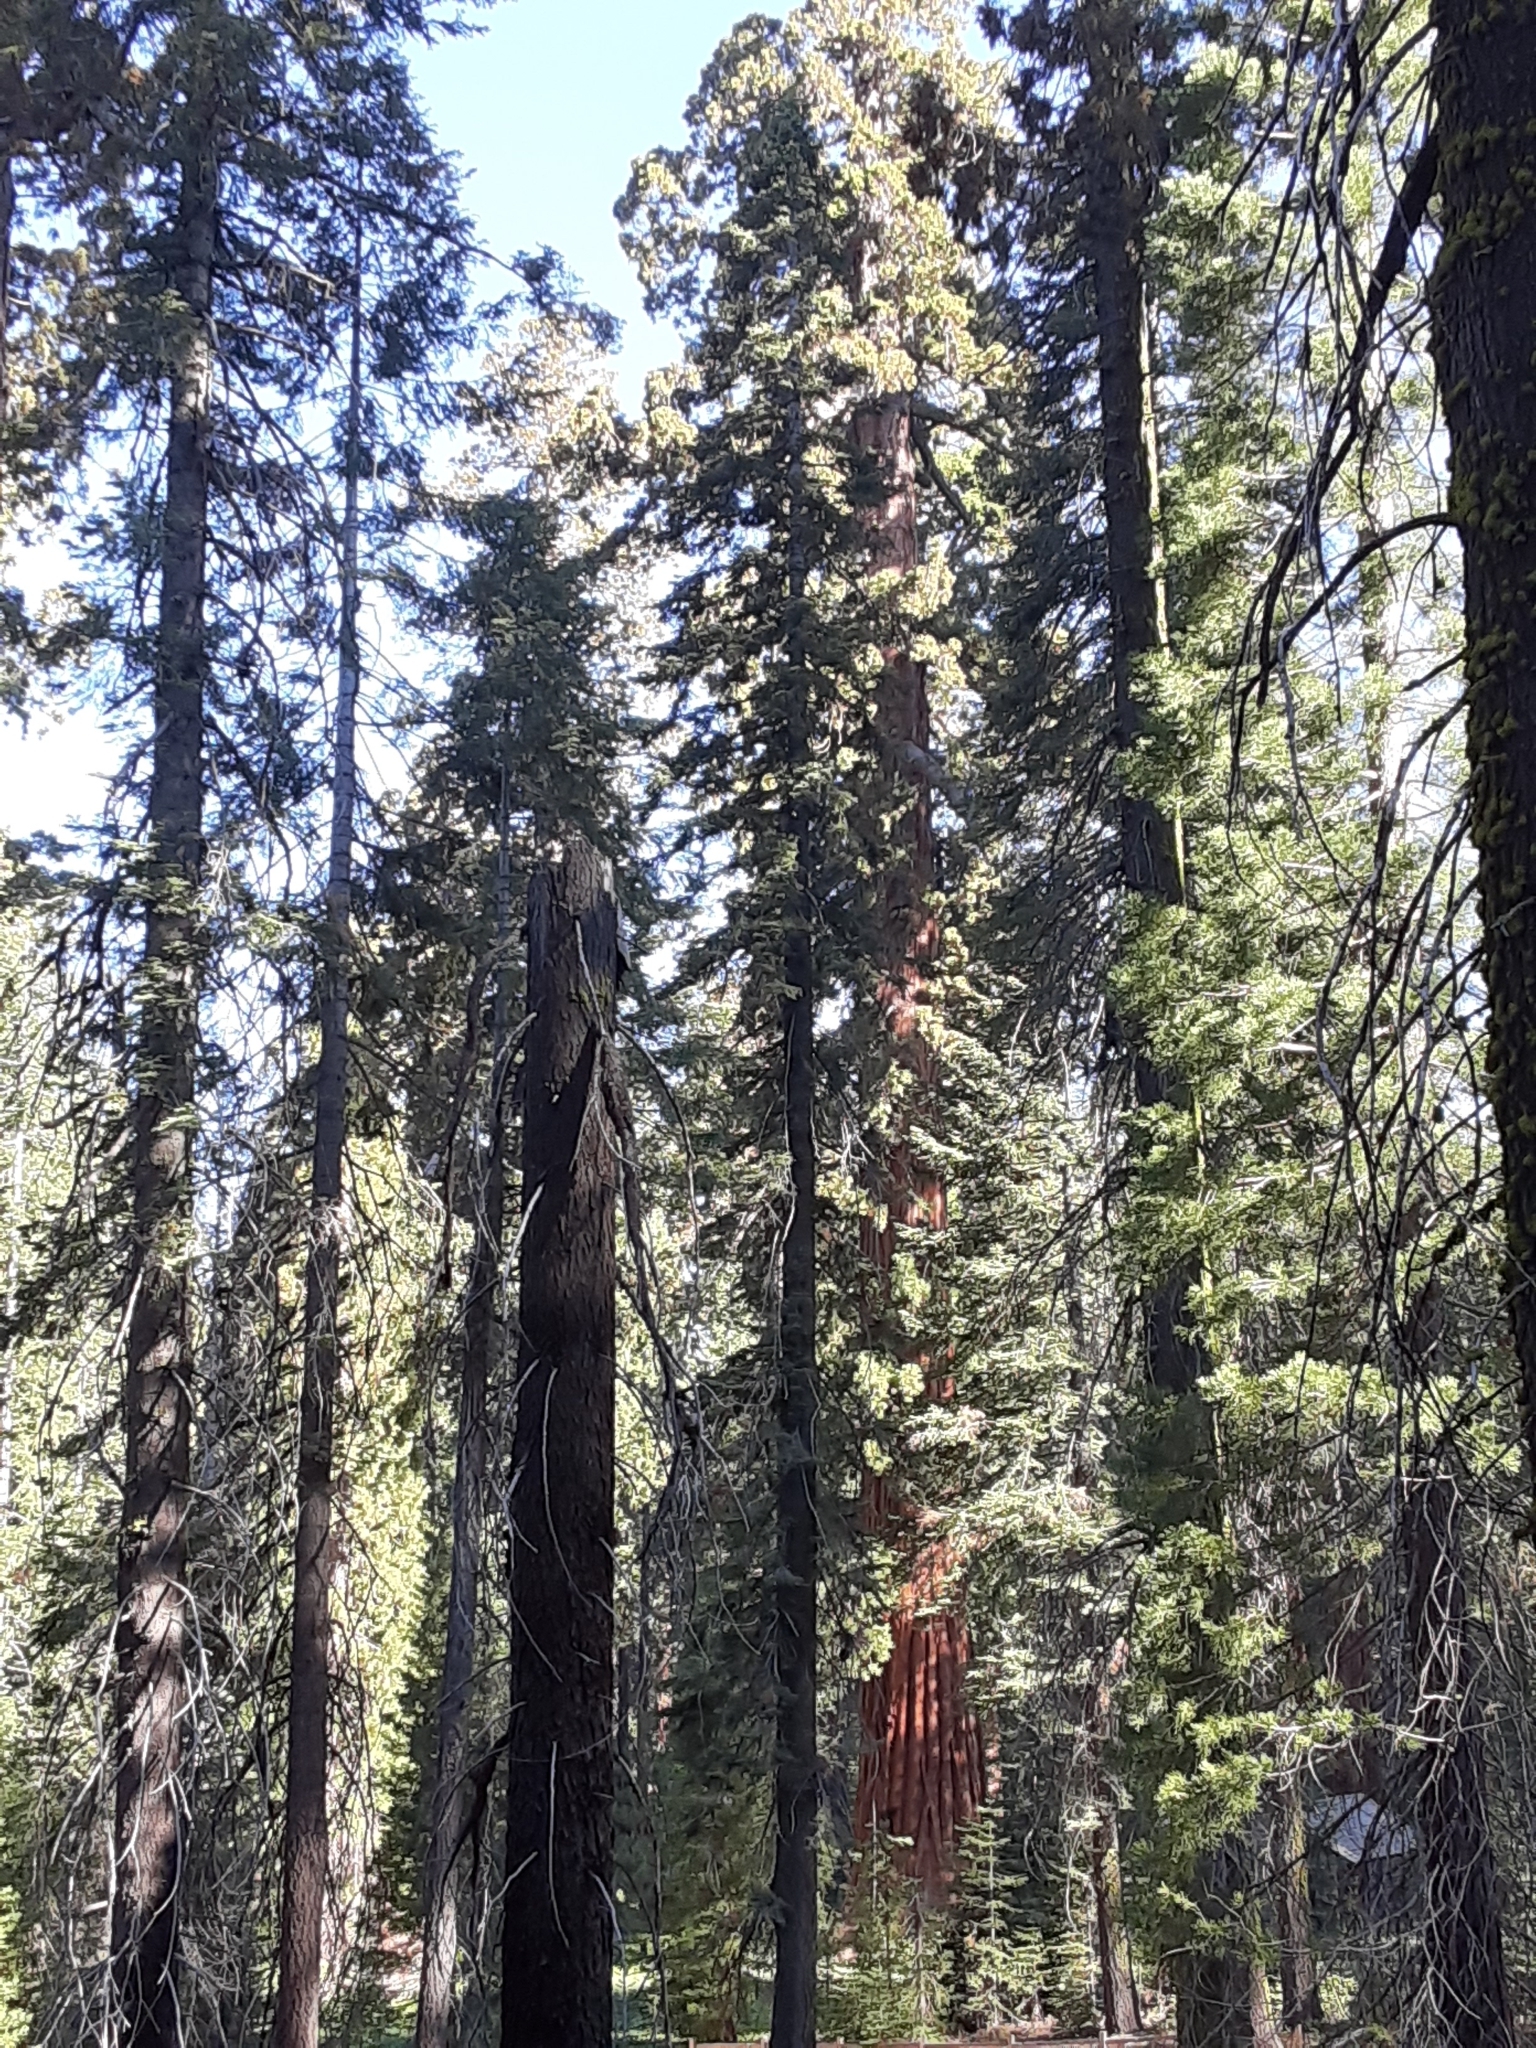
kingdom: Plantae
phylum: Tracheophyta
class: Pinopsida
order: Pinales
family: Cupressaceae
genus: Sequoiadendron
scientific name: Sequoiadendron giganteum
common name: Wellingtonia
